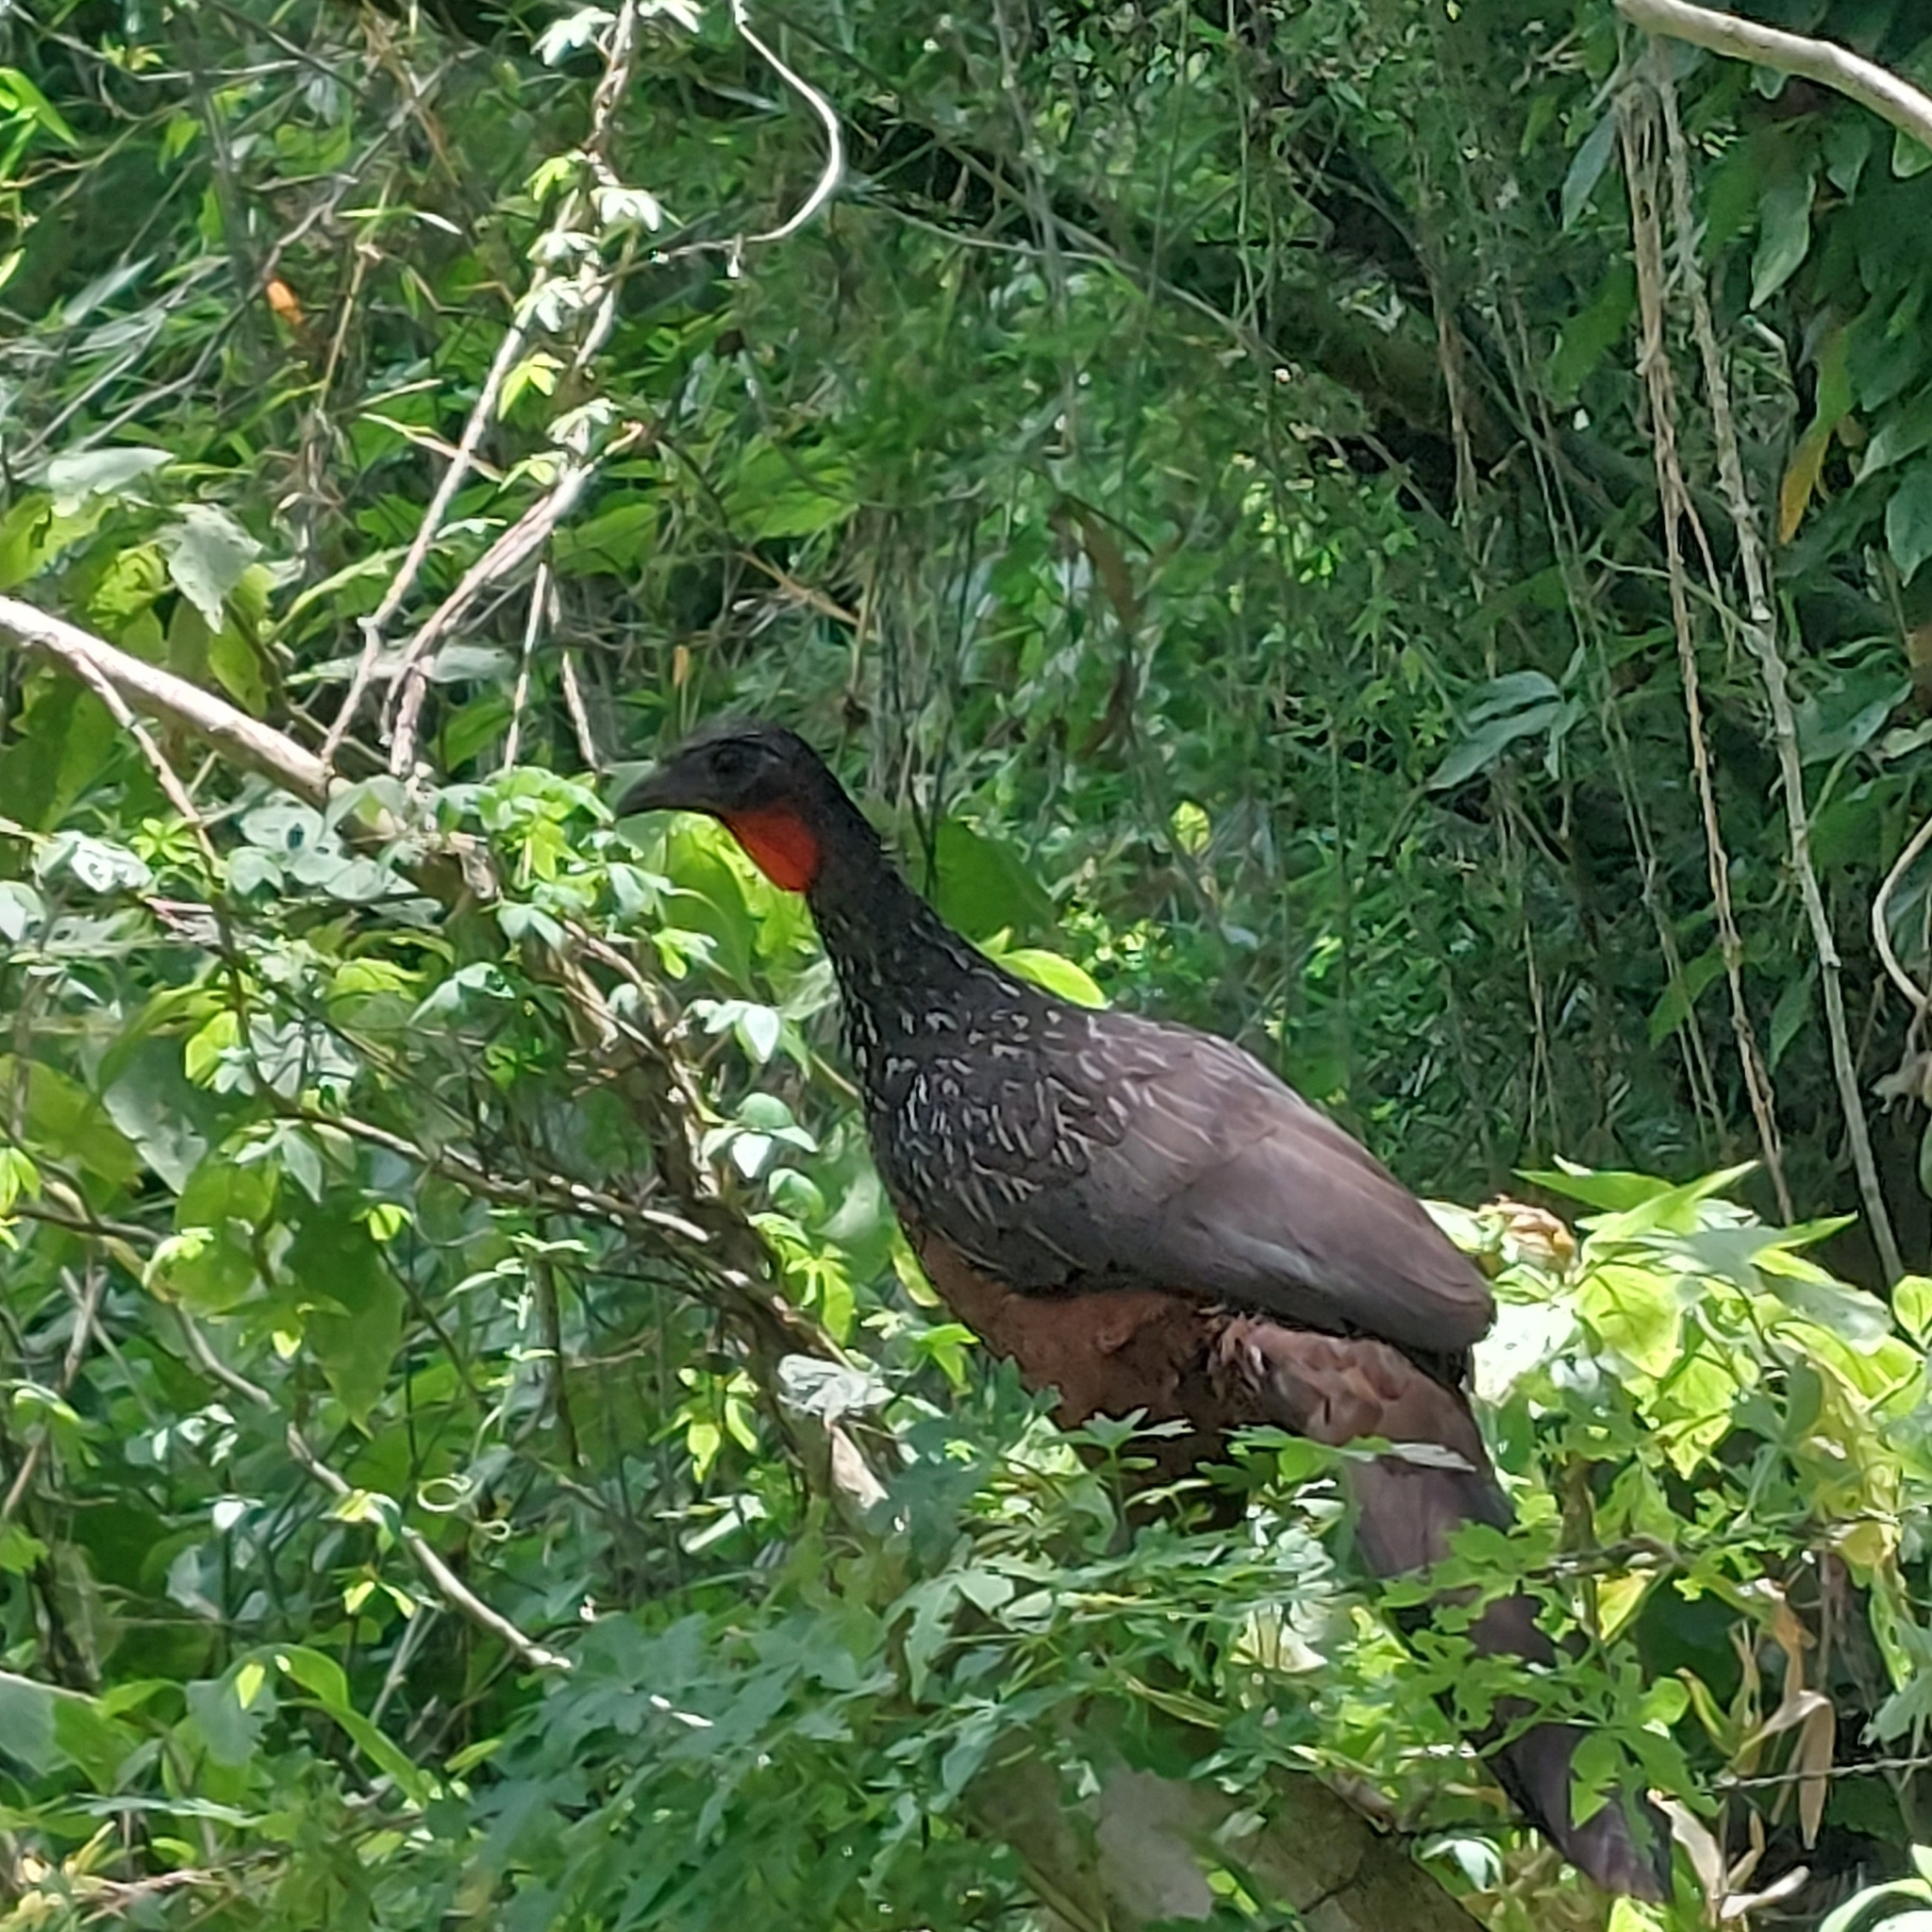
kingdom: Animalia
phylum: Chordata
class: Aves
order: Galliformes
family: Cracidae
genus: Penelope
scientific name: Penelope obscura
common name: Dusky-legged guan
